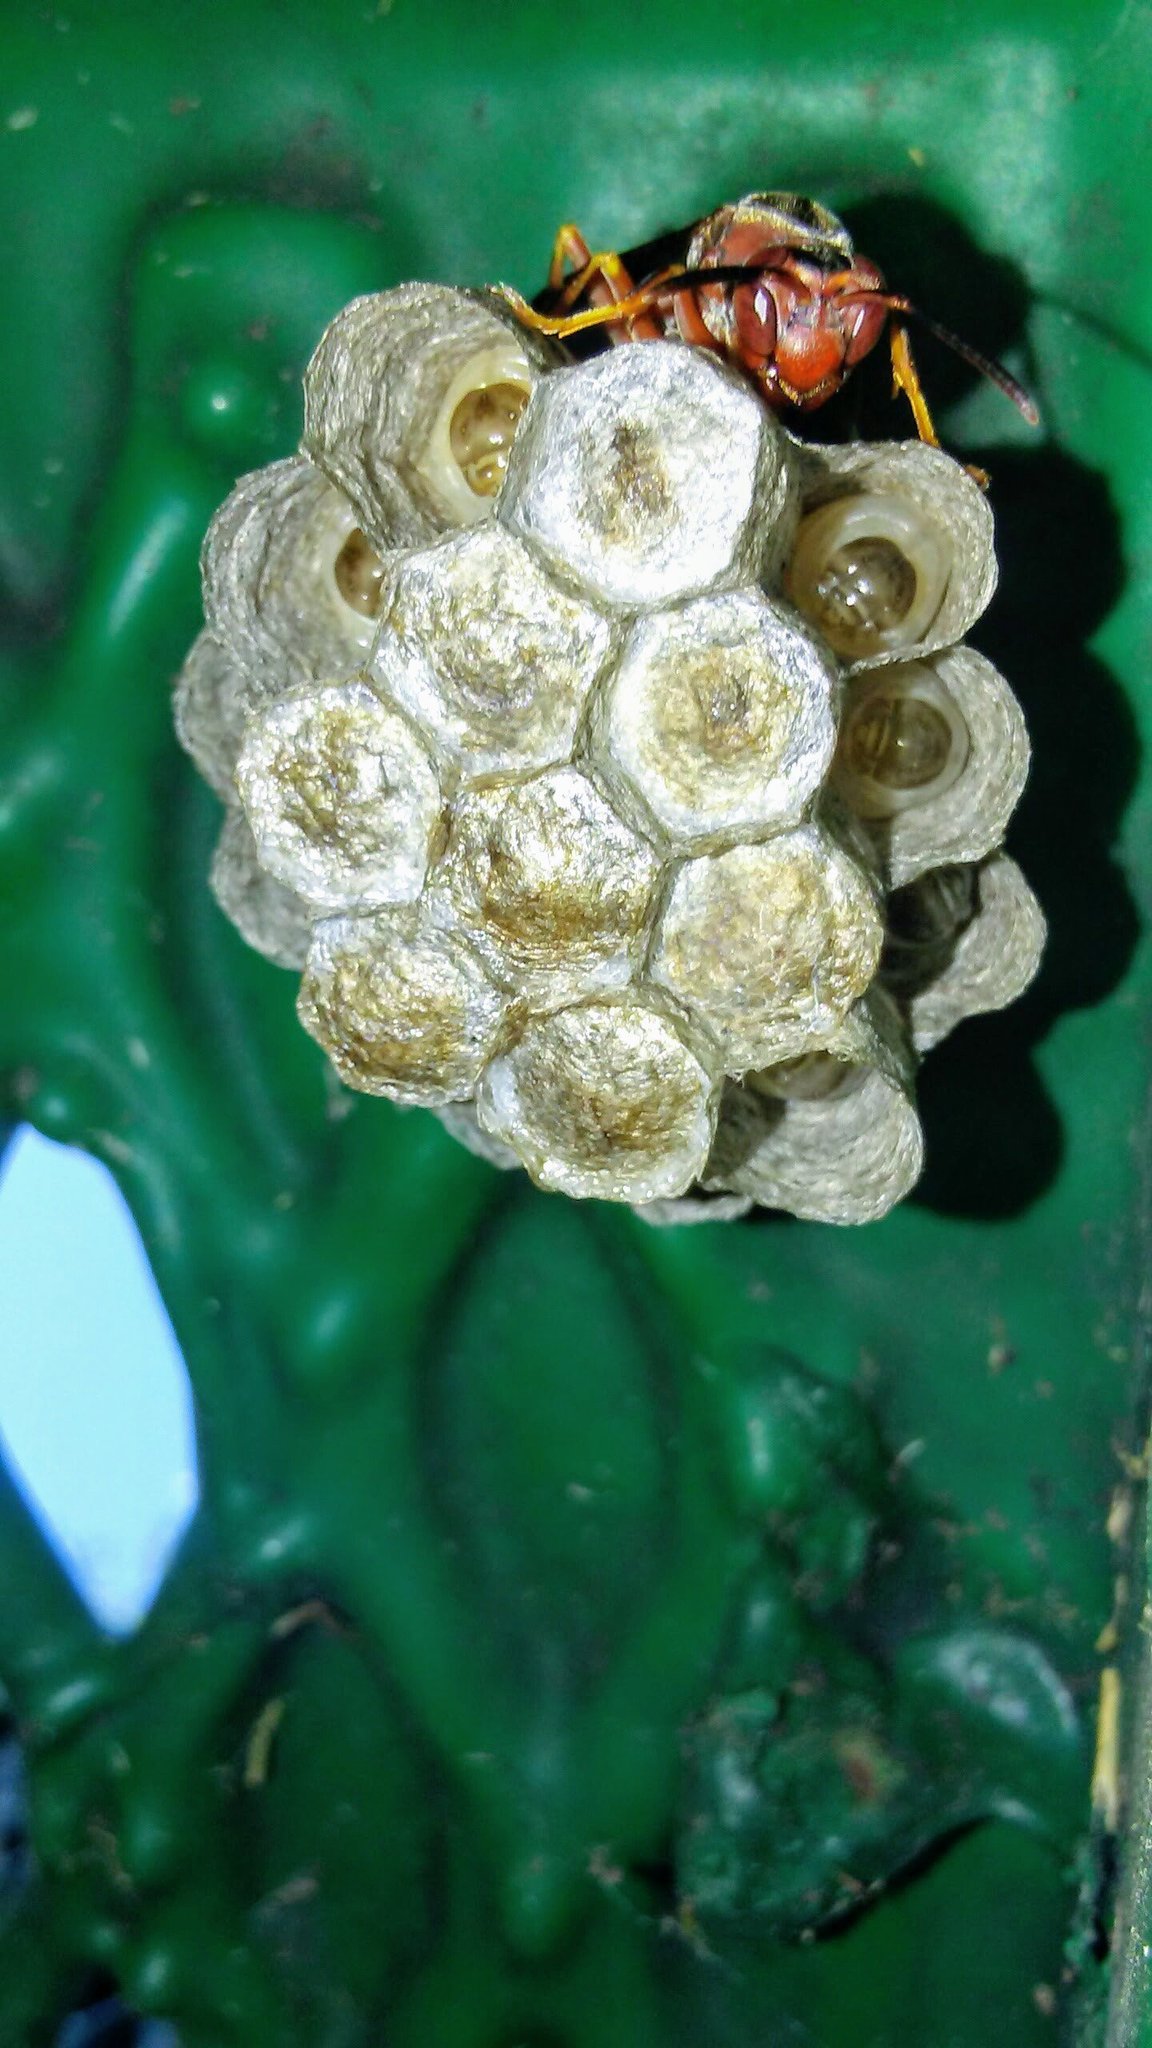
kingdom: Animalia
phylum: Arthropoda
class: Insecta
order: Hymenoptera
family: Vespidae
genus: Fuscopolistes
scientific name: Fuscopolistes
